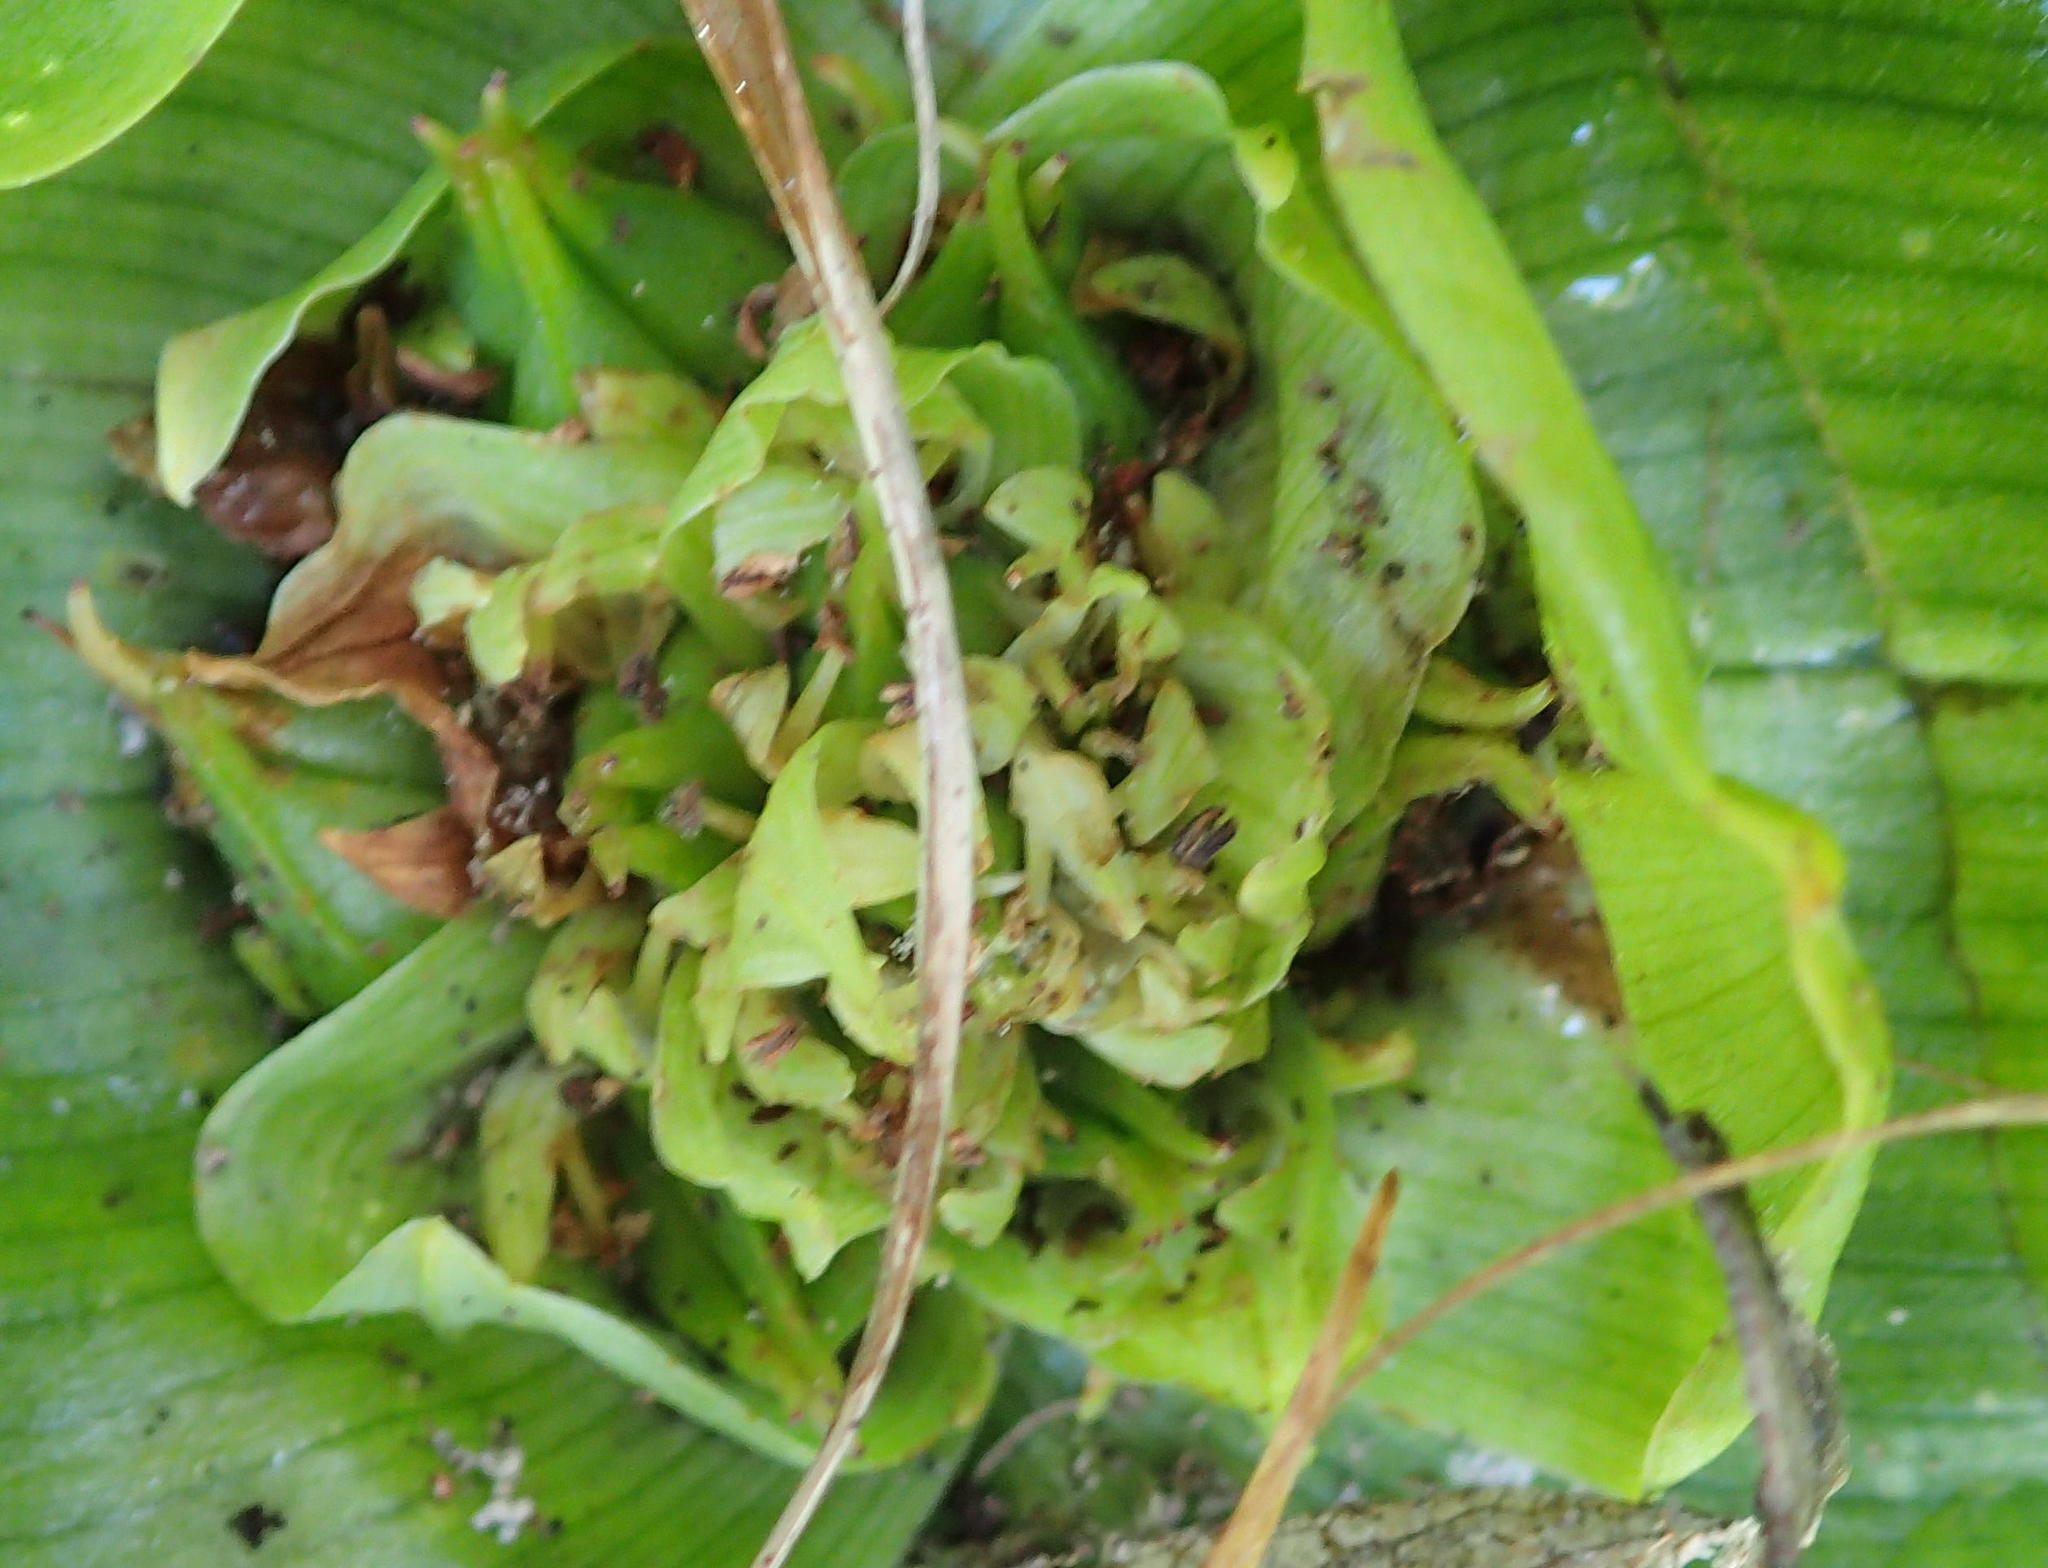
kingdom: Plantae
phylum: Tracheophyta
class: Liliopsida
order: Liliales
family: Colchicaceae
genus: Colchicum
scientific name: Colchicum eucomoides
